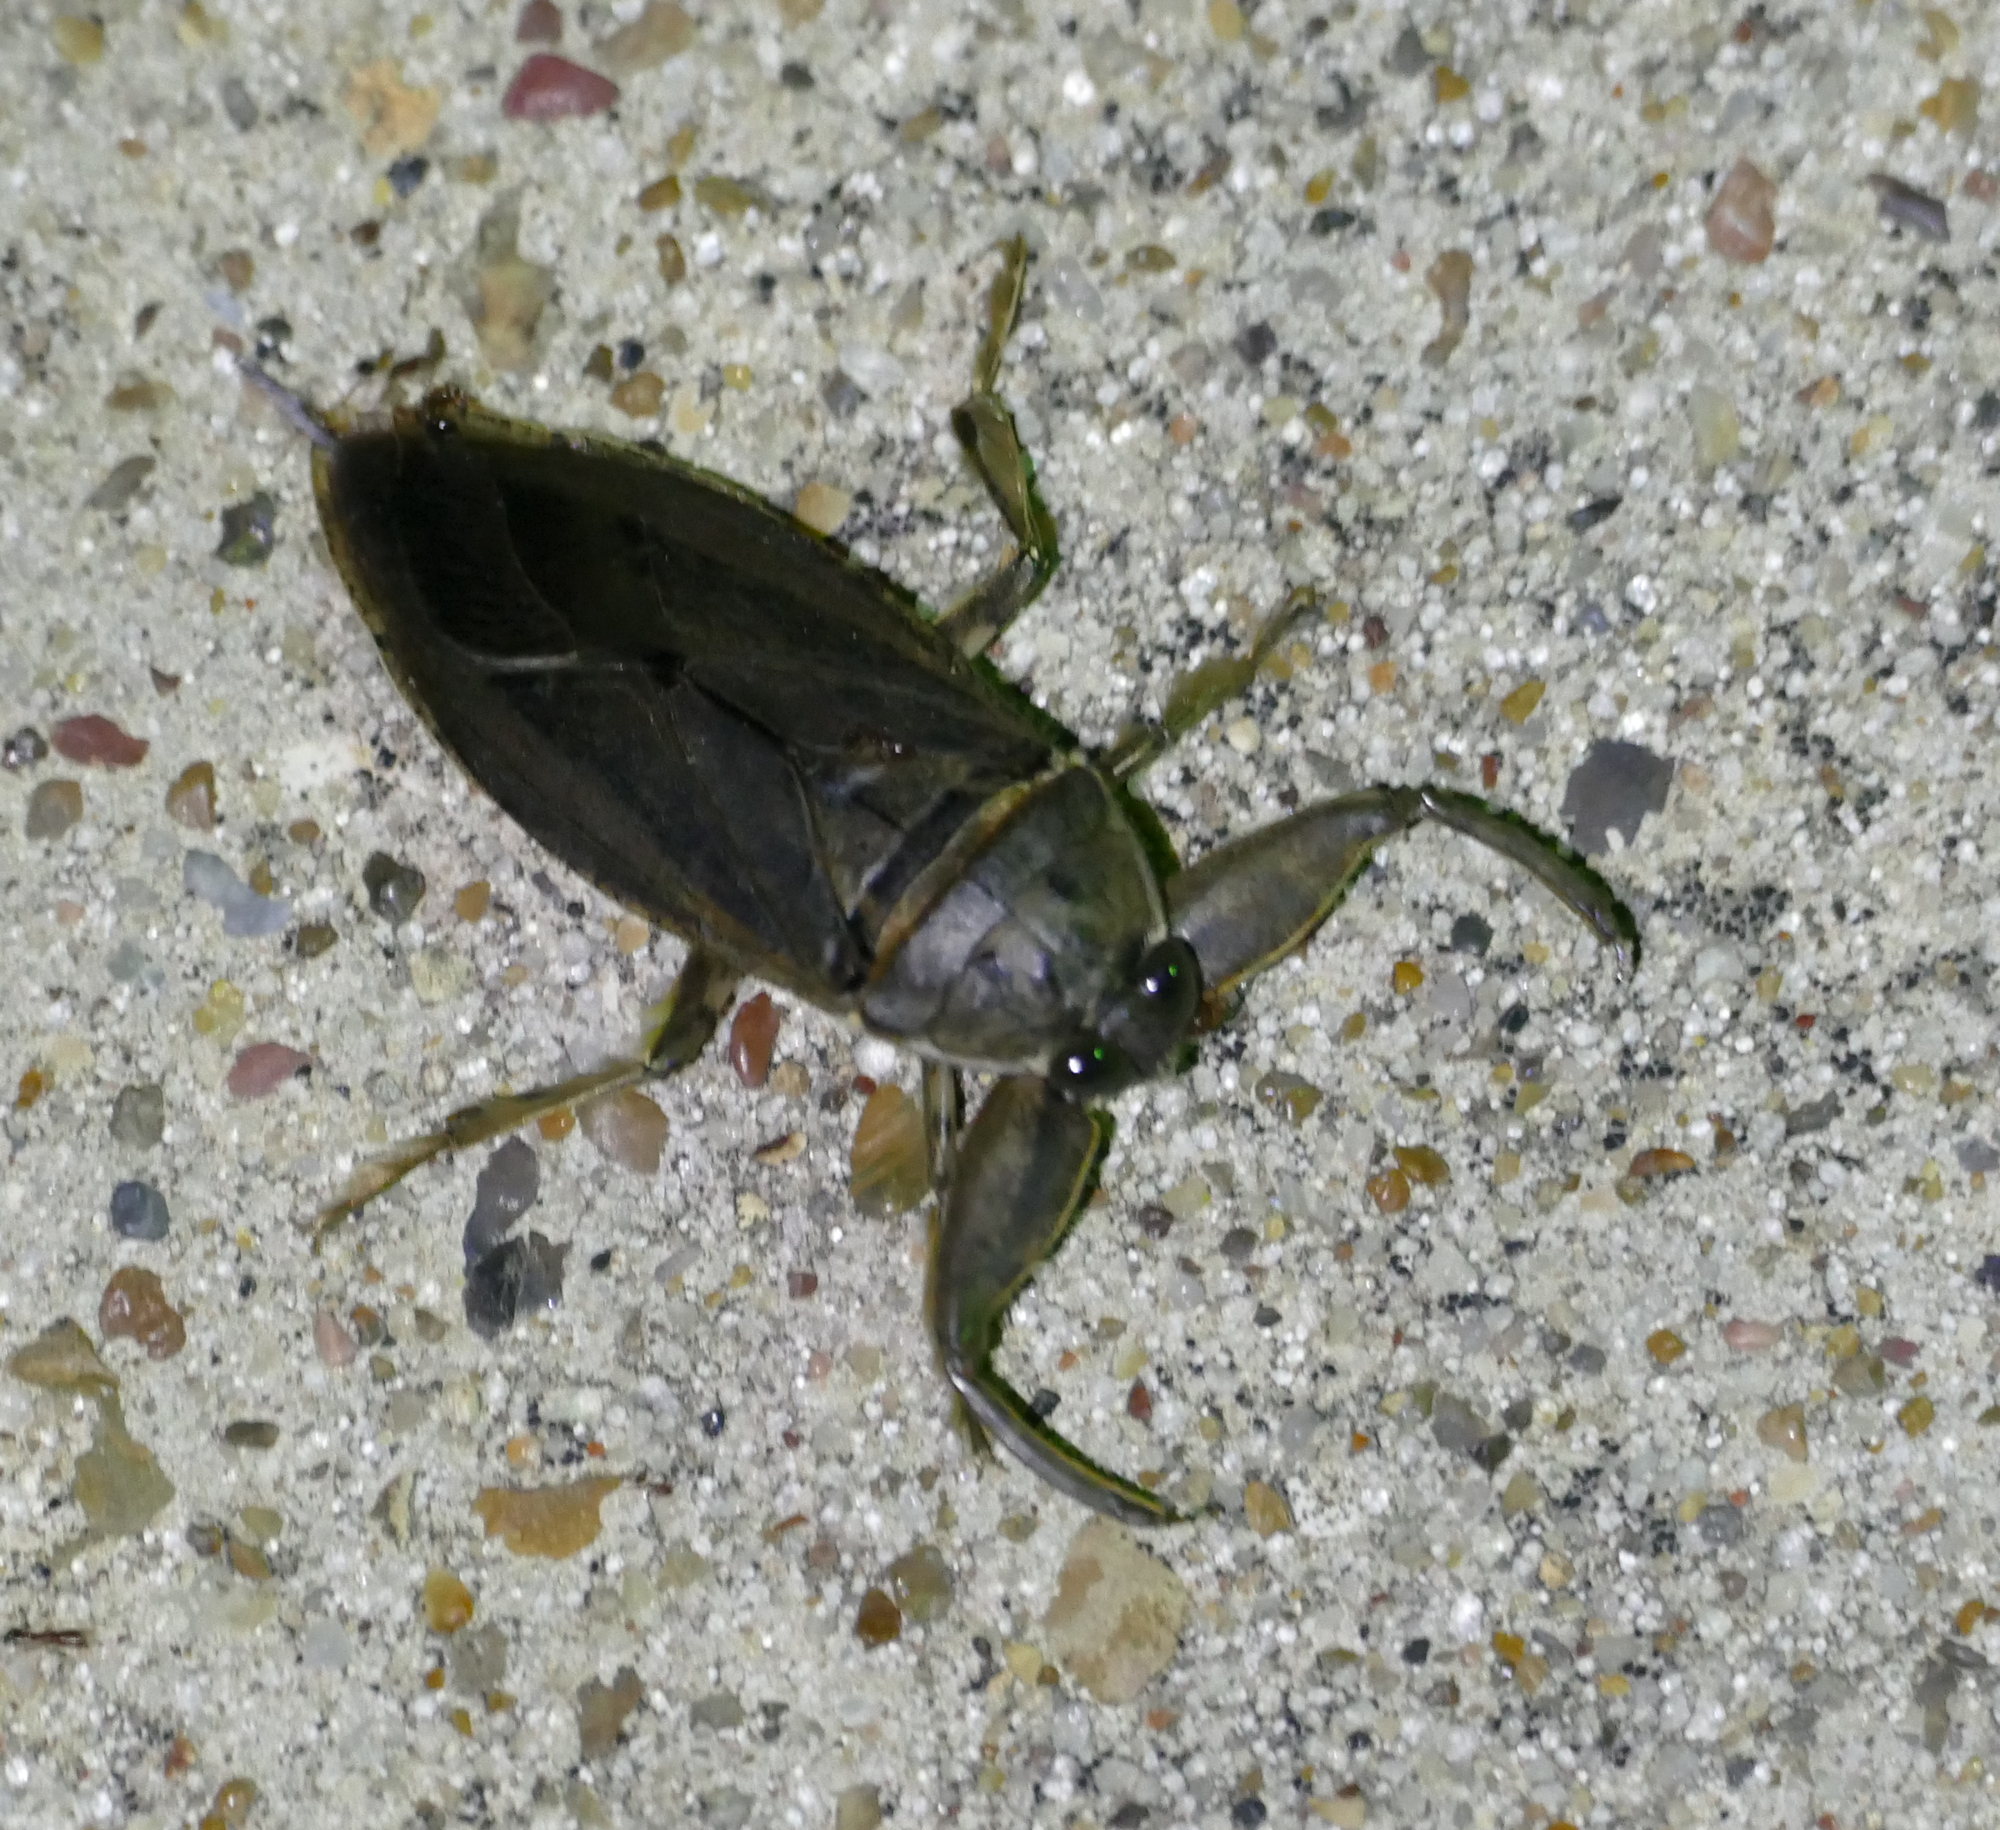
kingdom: Animalia
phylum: Arthropoda
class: Insecta
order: Hemiptera
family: Belostomatidae
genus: Lethocerus
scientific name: Lethocerus uhleri
